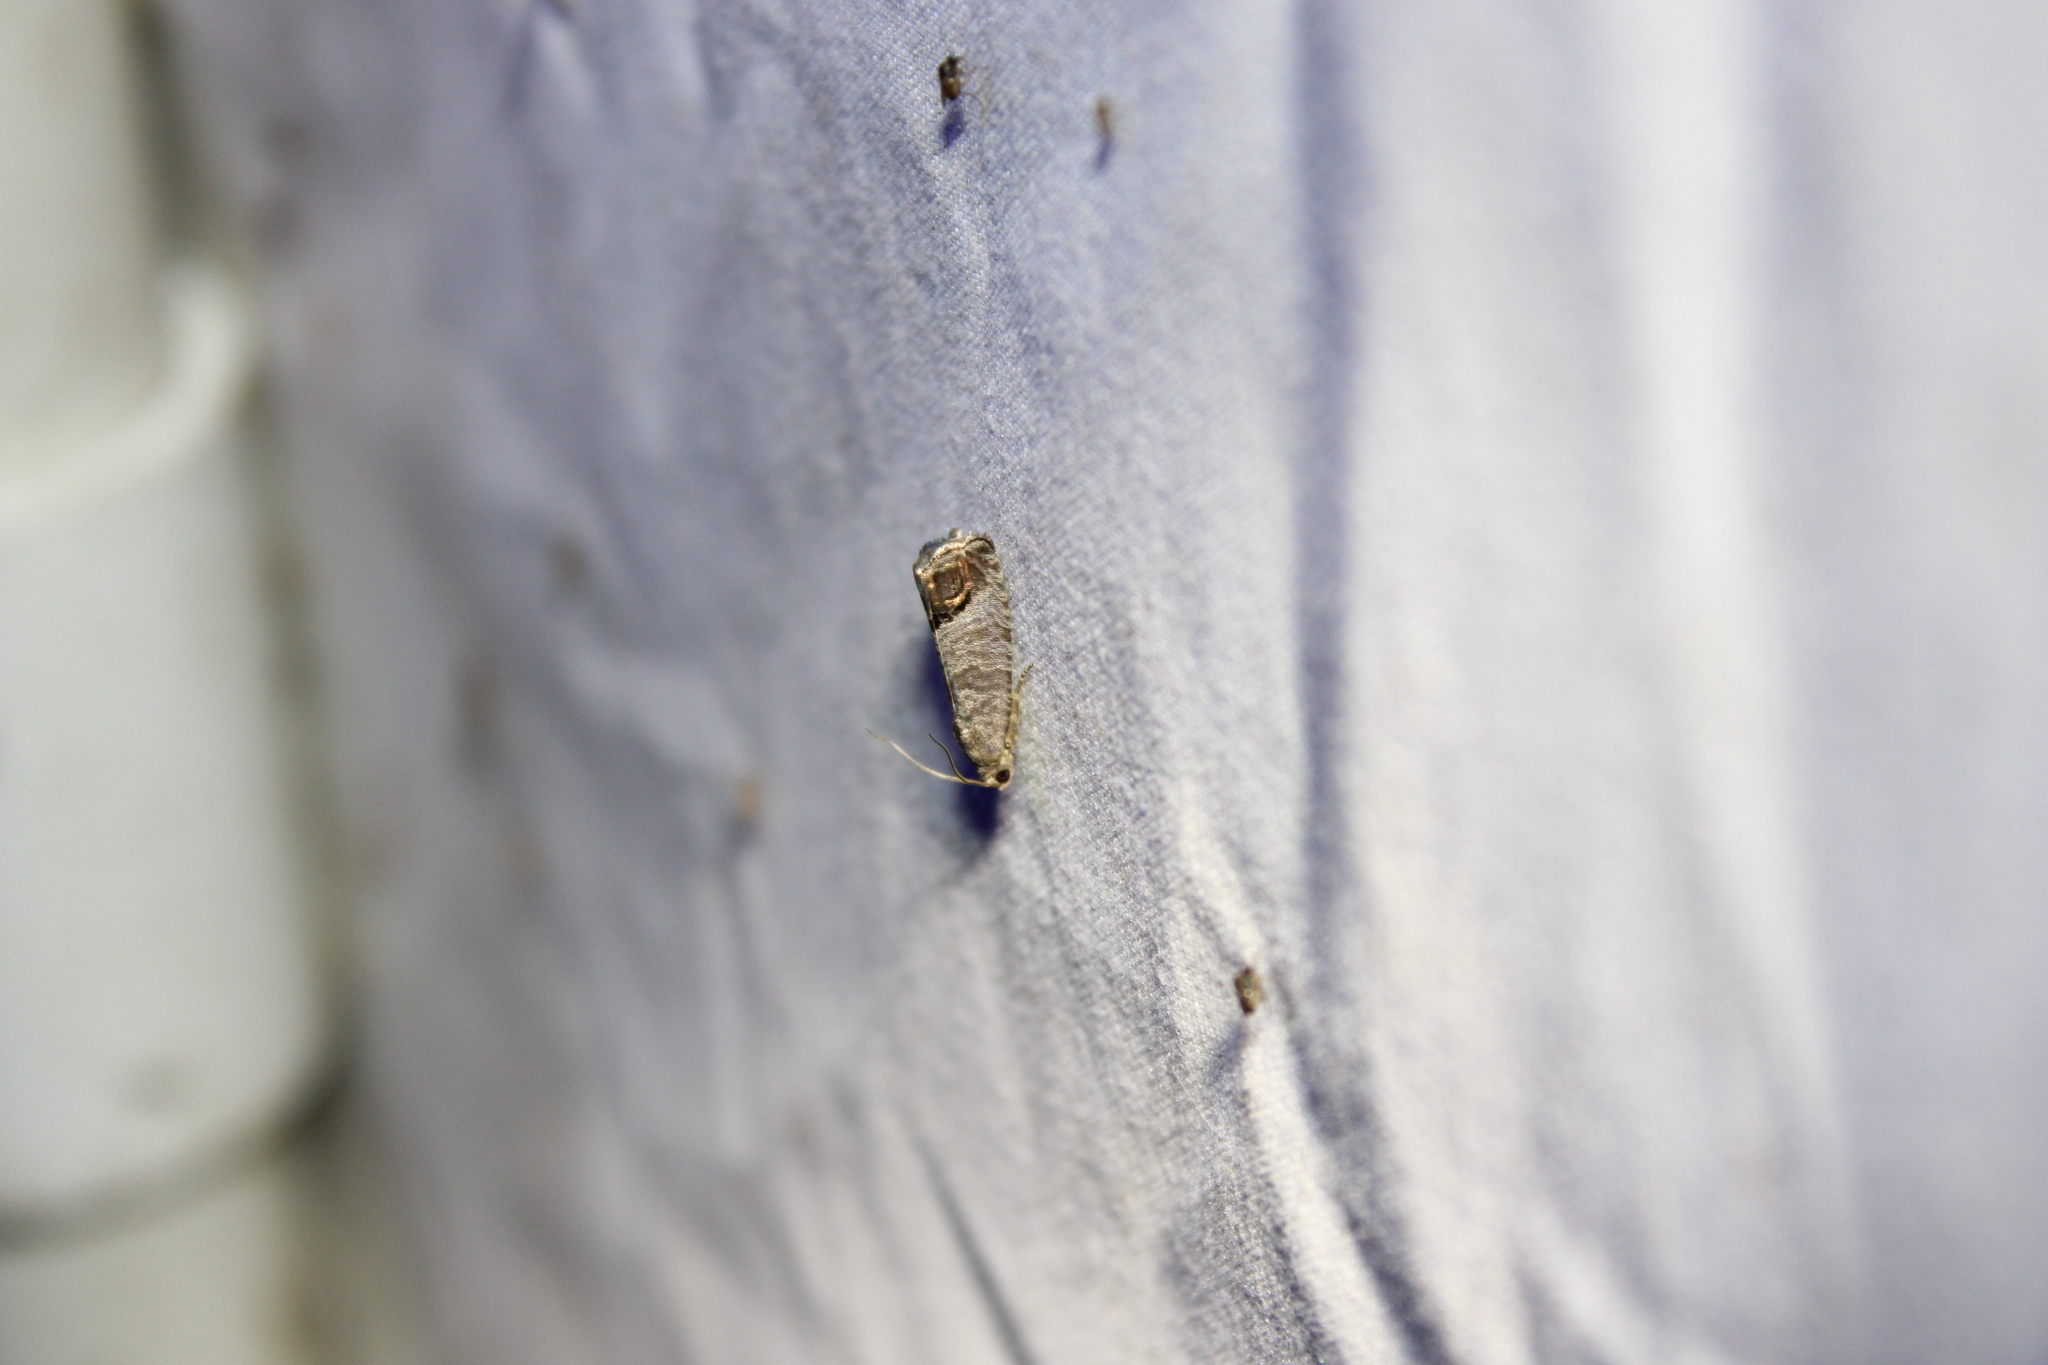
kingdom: Animalia
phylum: Arthropoda
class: Insecta
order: Lepidoptera
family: Tortricidae
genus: Cydia
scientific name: Cydia pomonella
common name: Codling moth
